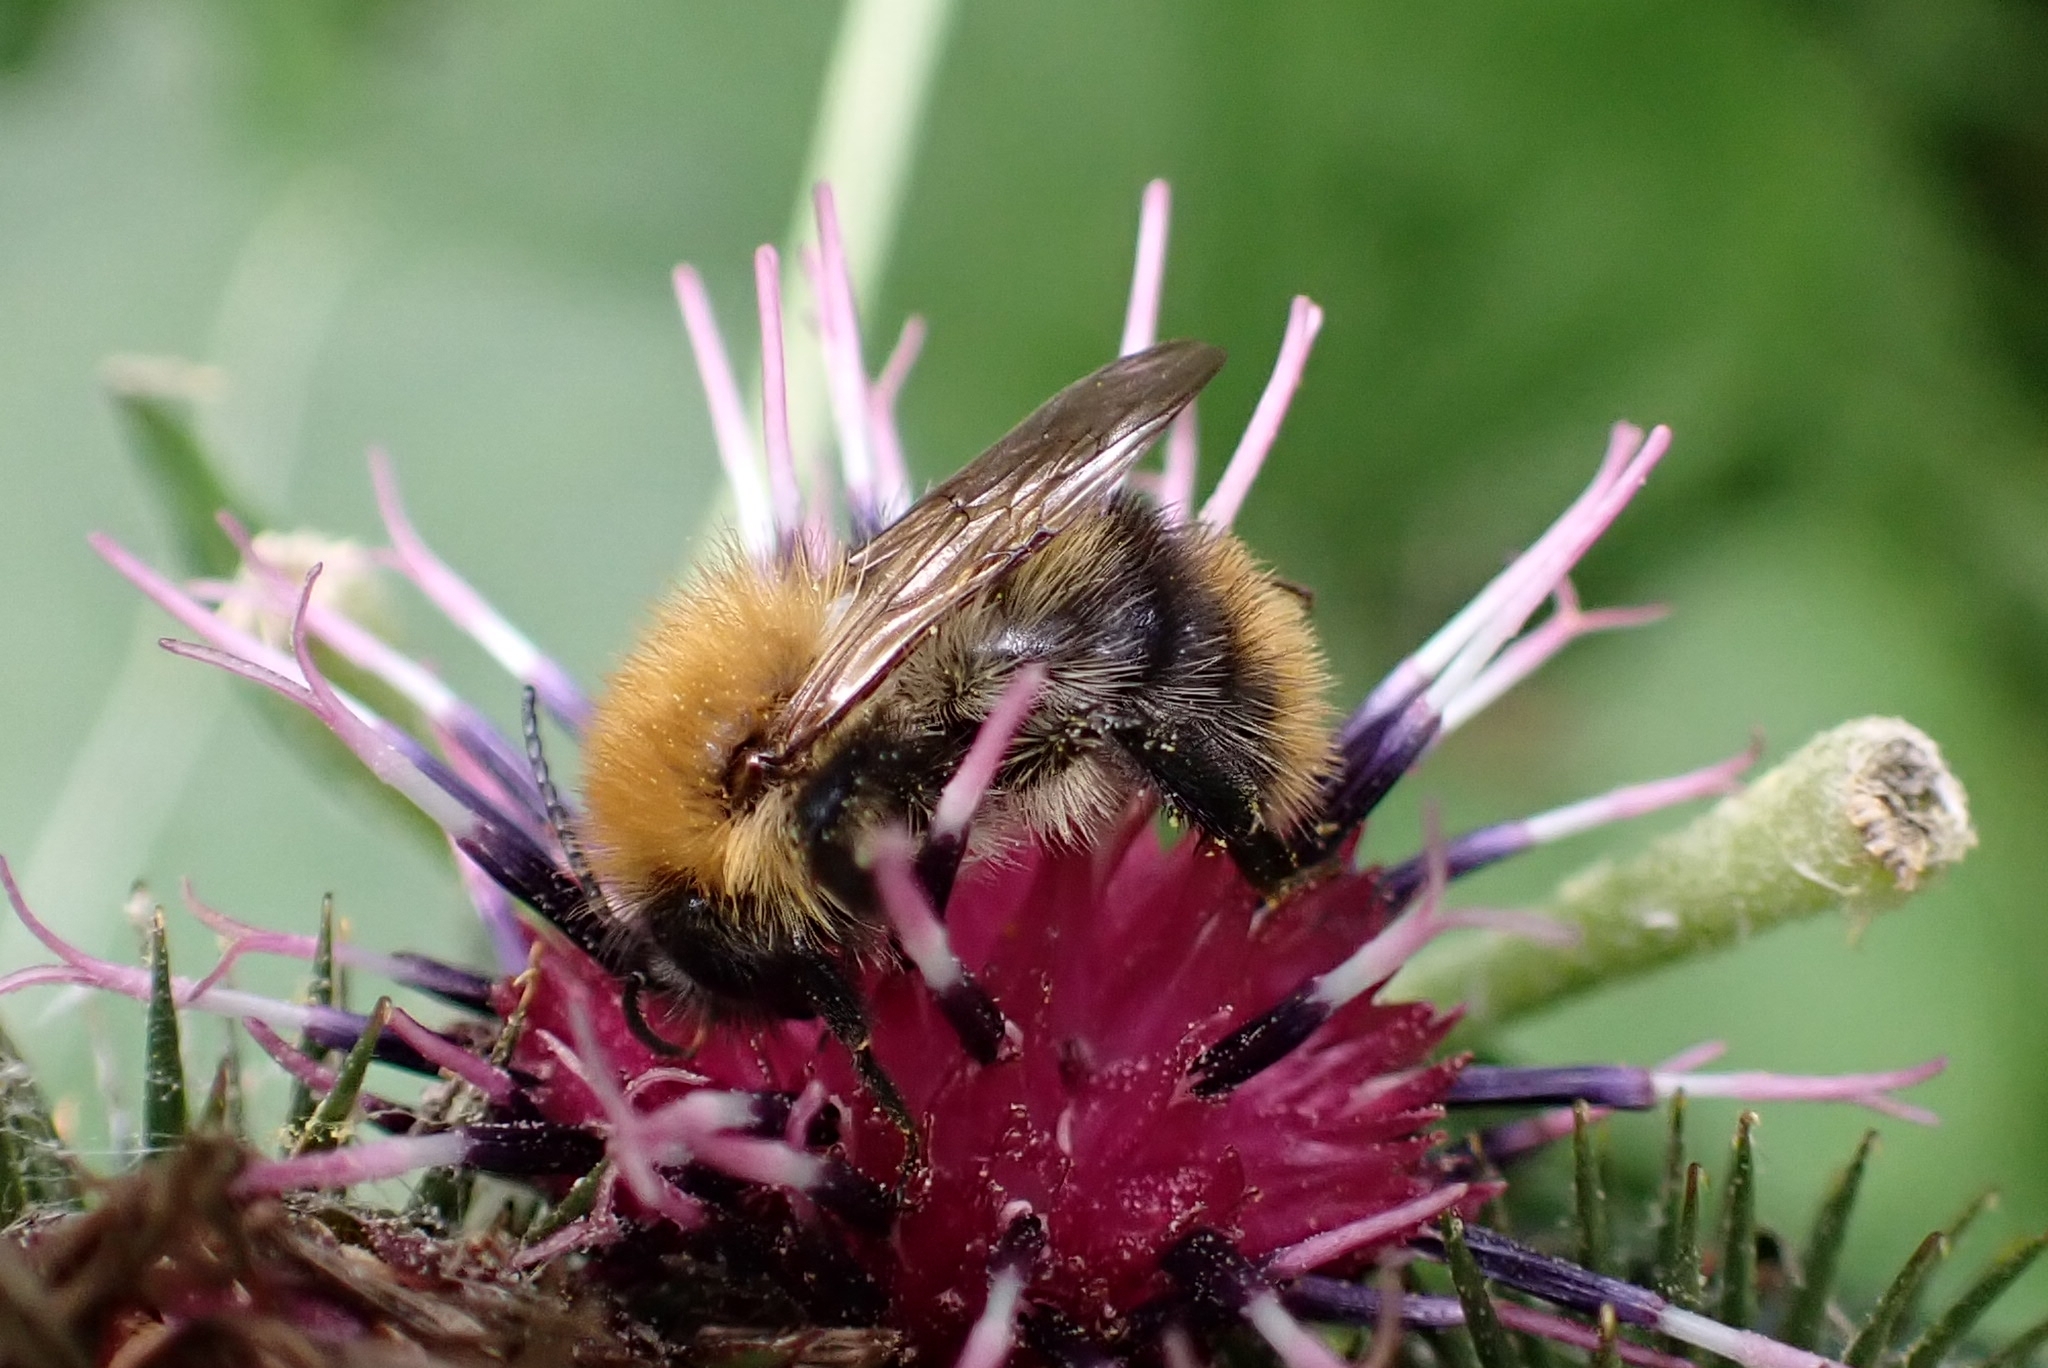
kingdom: Animalia
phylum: Arthropoda
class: Insecta
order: Hymenoptera
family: Apidae
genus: Bombus
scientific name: Bombus pascuorum
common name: Common carder bee
